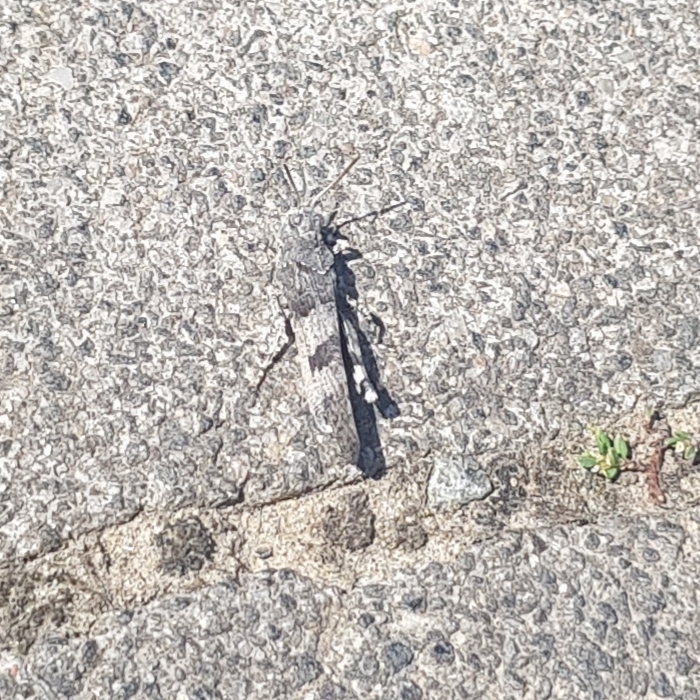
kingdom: Animalia
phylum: Arthropoda
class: Insecta
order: Orthoptera
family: Acrididae
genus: Oedipoda
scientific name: Oedipoda caerulescens
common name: Blue-winged grasshopper
